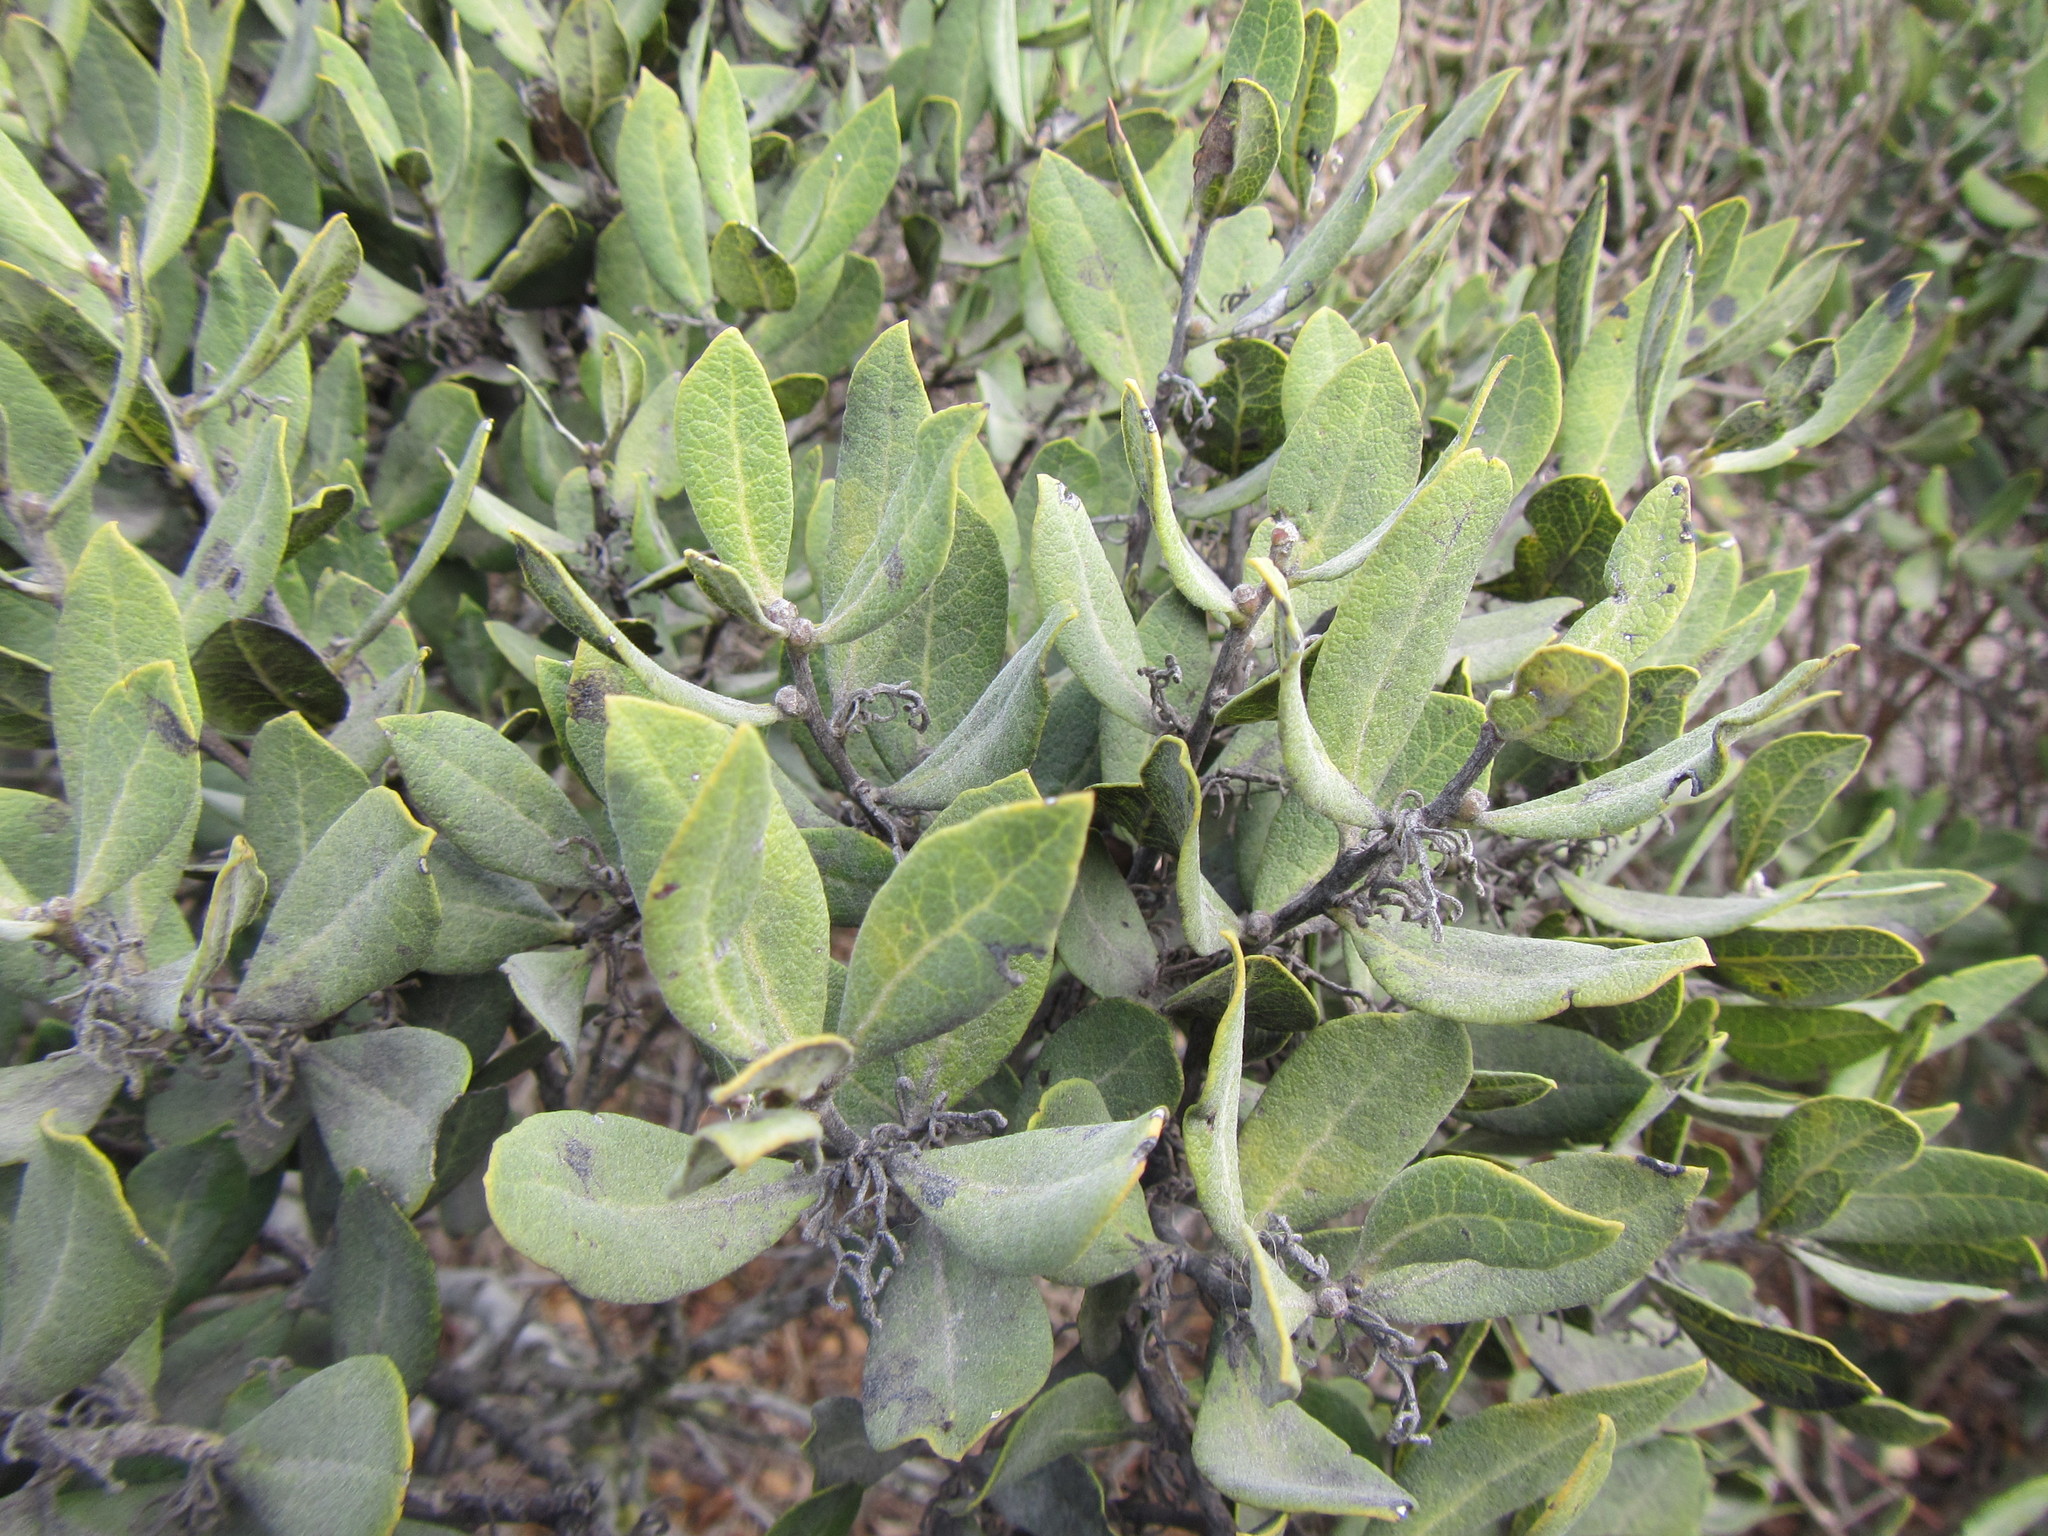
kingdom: Plantae
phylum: Tracheophyta
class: Magnoliopsida
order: Ericales
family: Ebenaceae
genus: Euclea
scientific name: Euclea tomentosa
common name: Honey guarri
